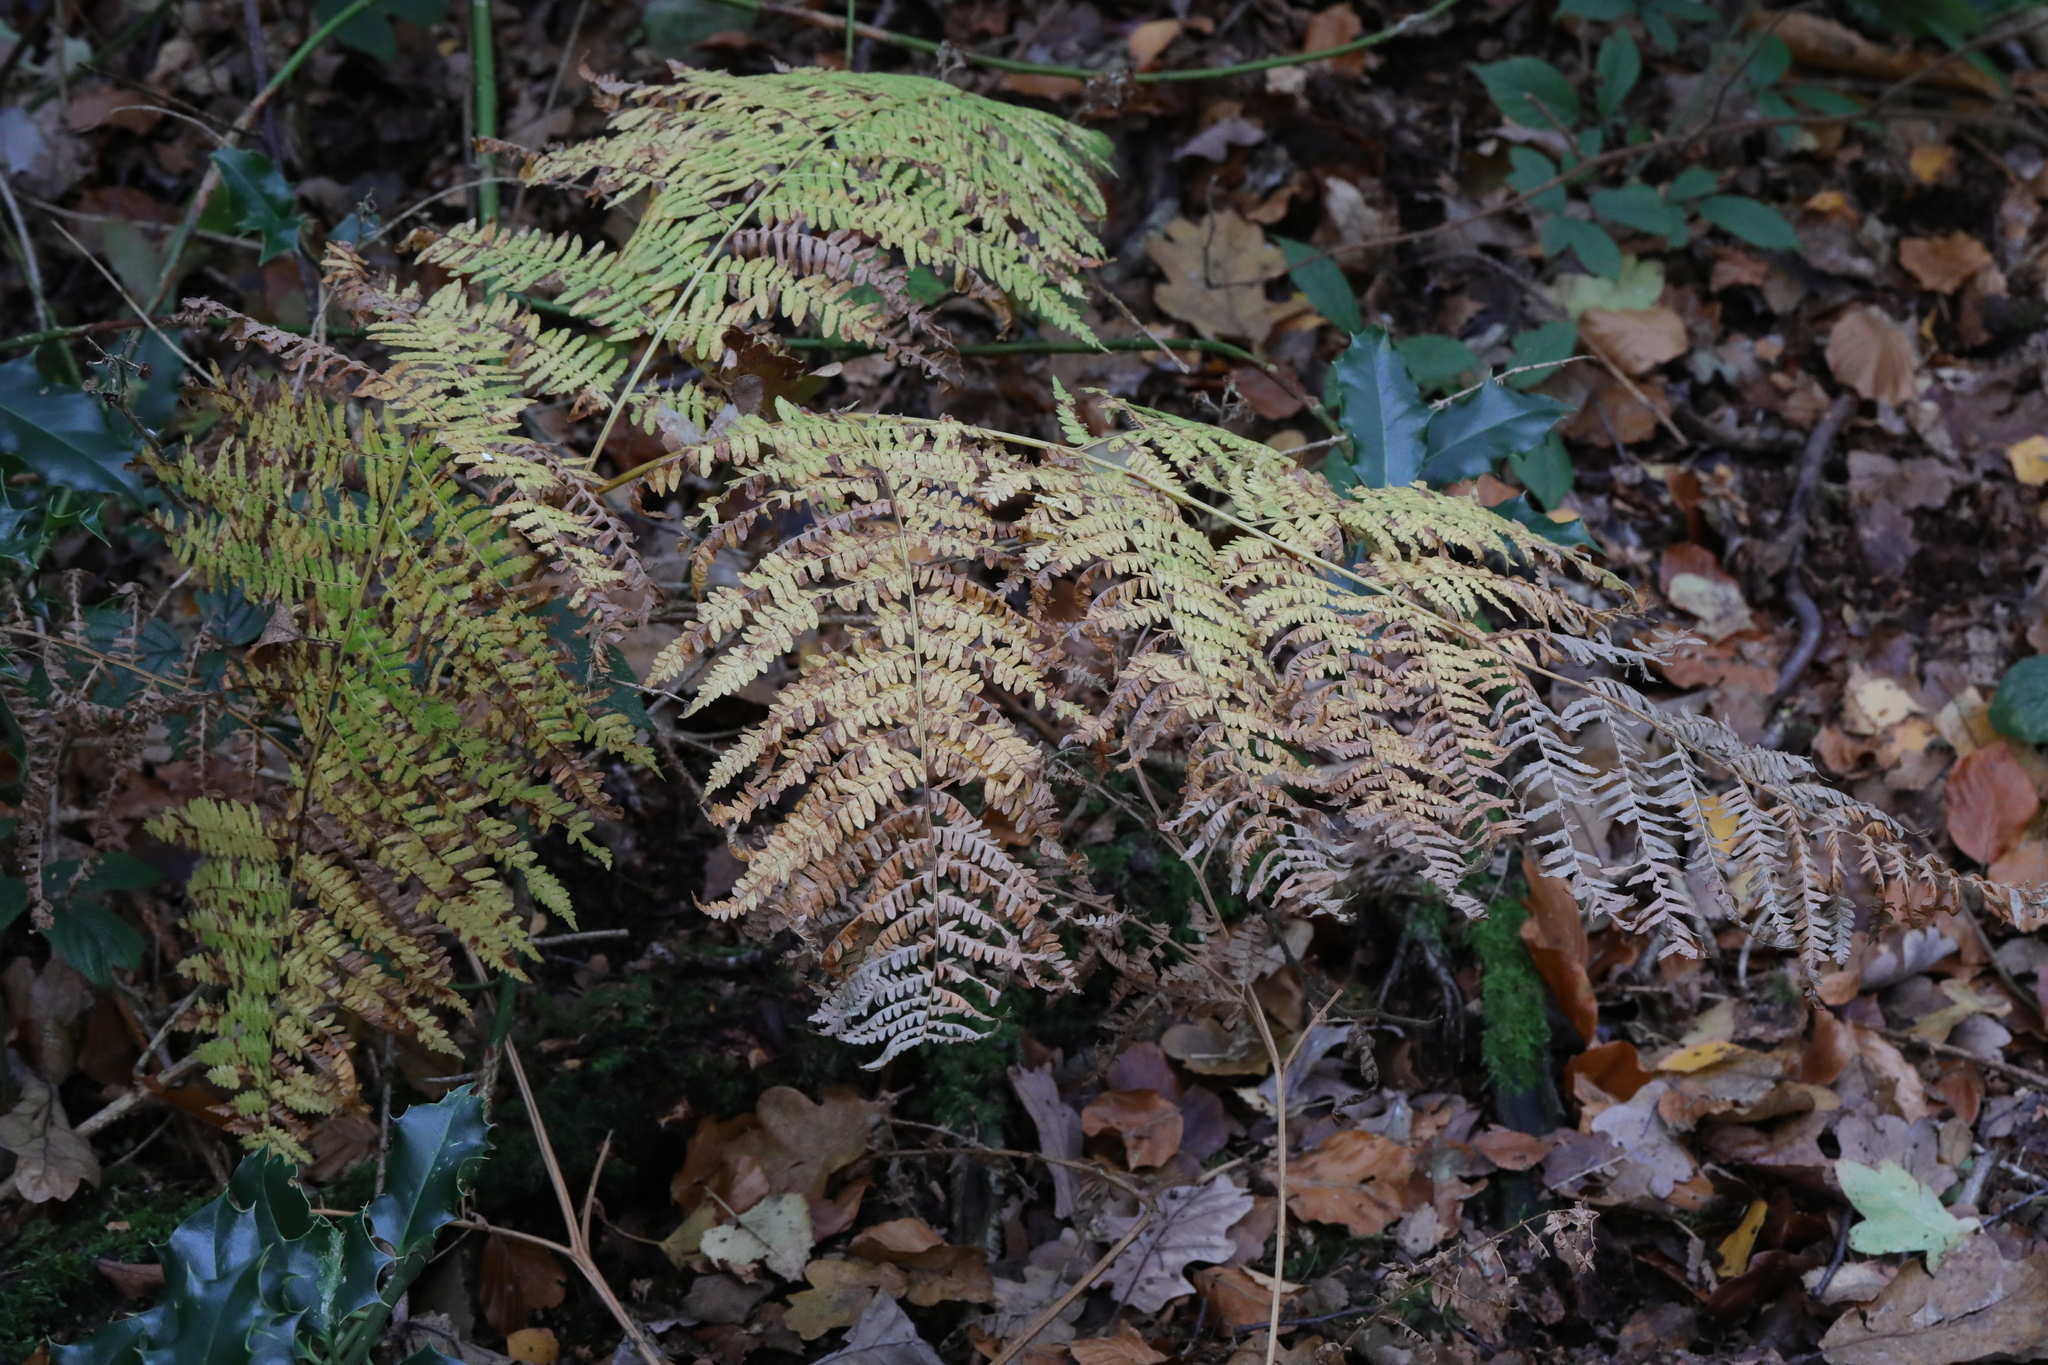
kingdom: Plantae
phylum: Tracheophyta
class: Polypodiopsida
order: Polypodiales
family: Dennstaedtiaceae
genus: Pteridium
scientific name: Pteridium aquilinum
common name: Bracken
